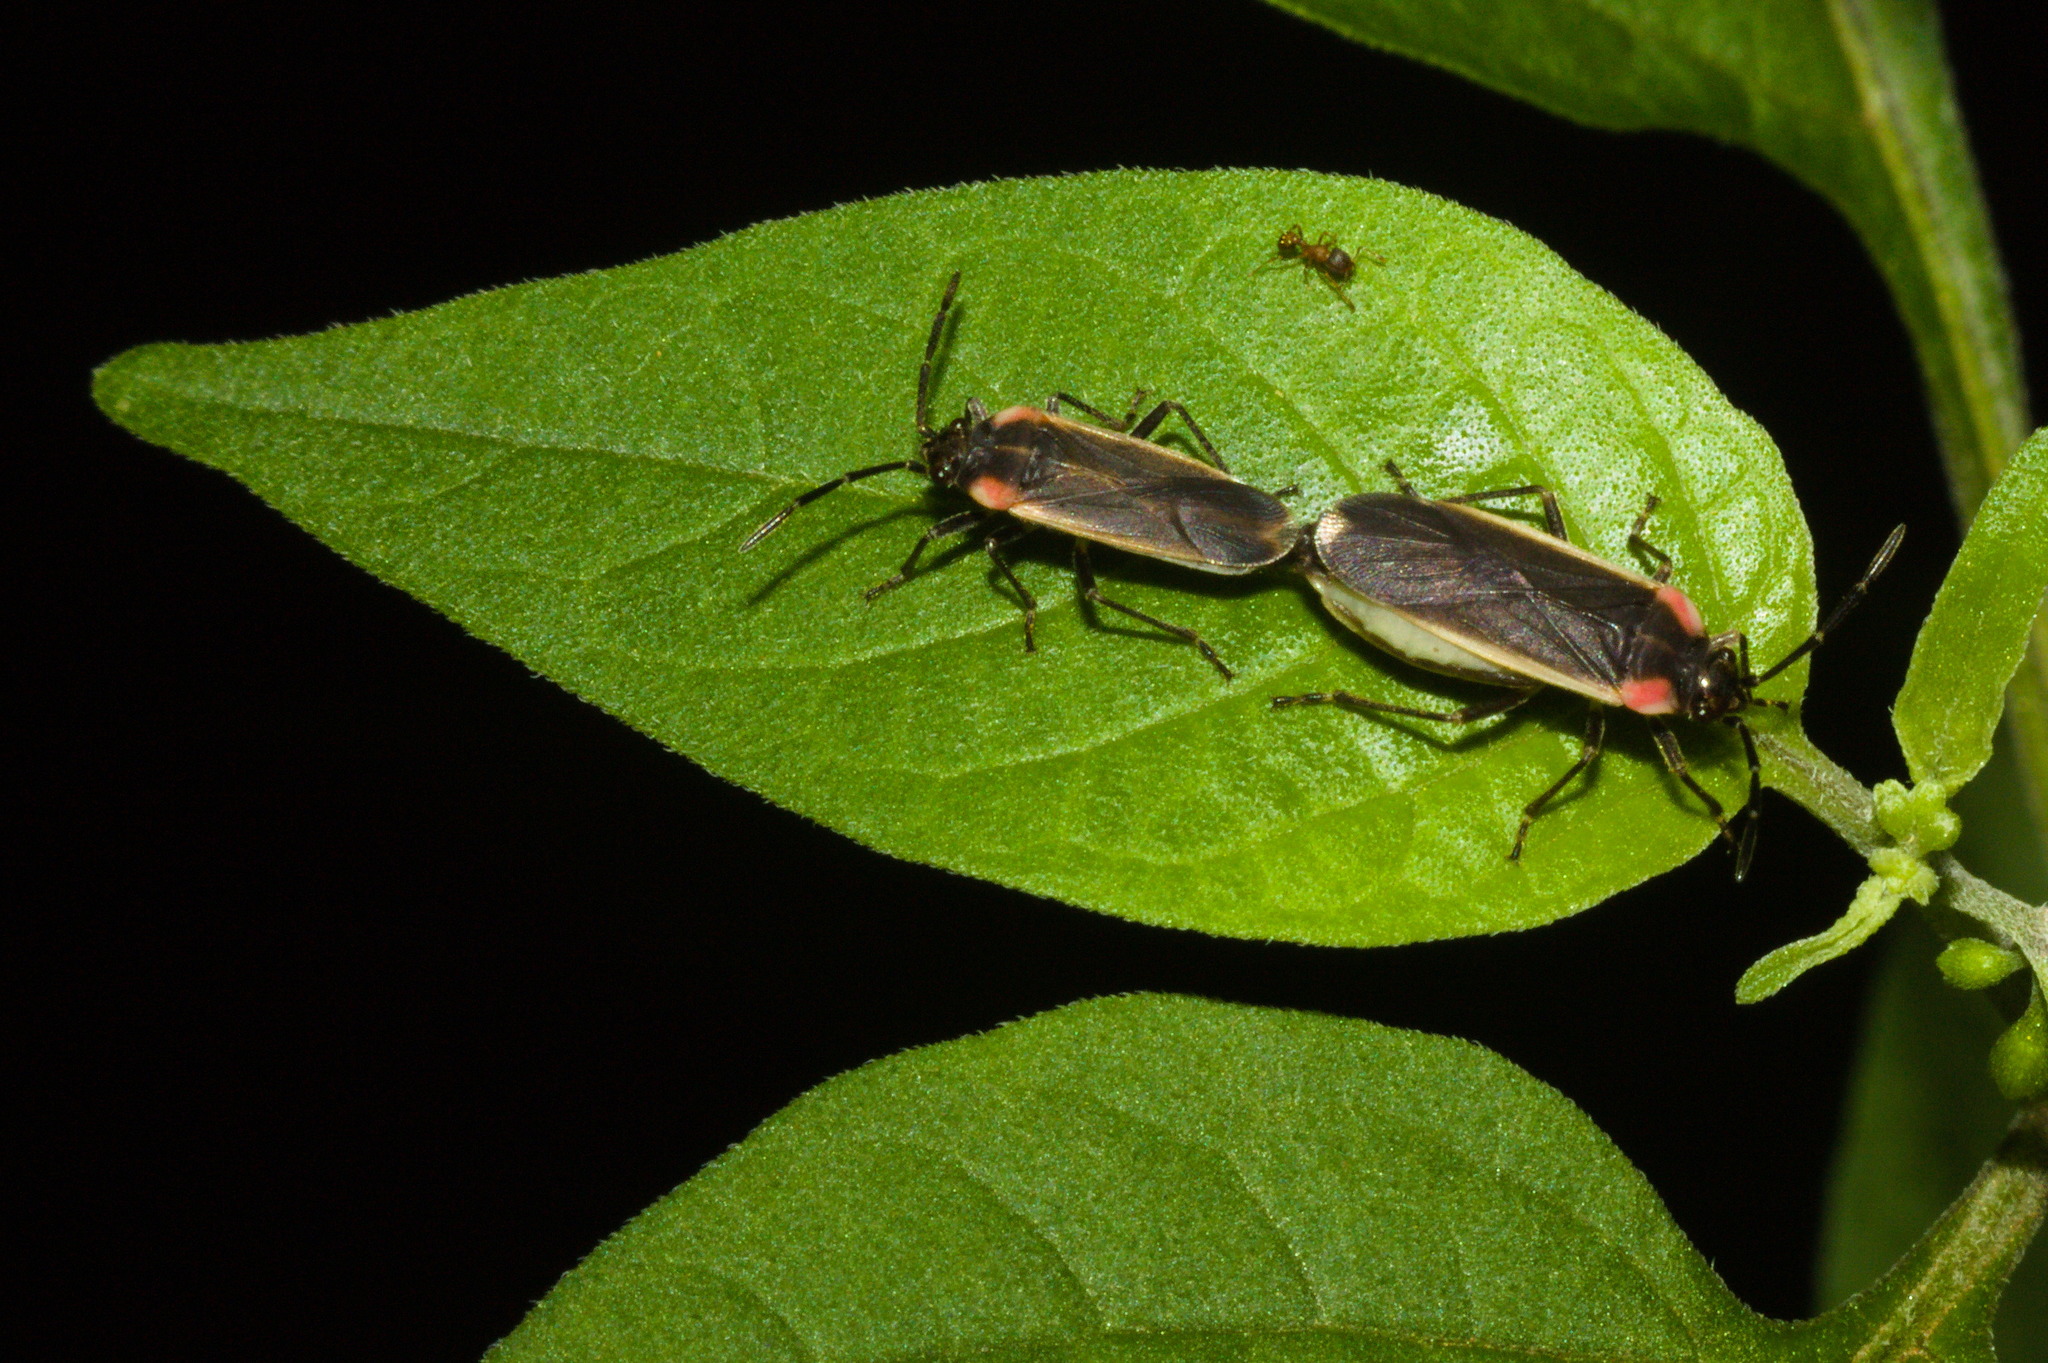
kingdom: Animalia
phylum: Arthropoda
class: Insecta
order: Hemiptera
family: Lygaeidae
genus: Acroleucus
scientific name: Acroleucus coxalis
